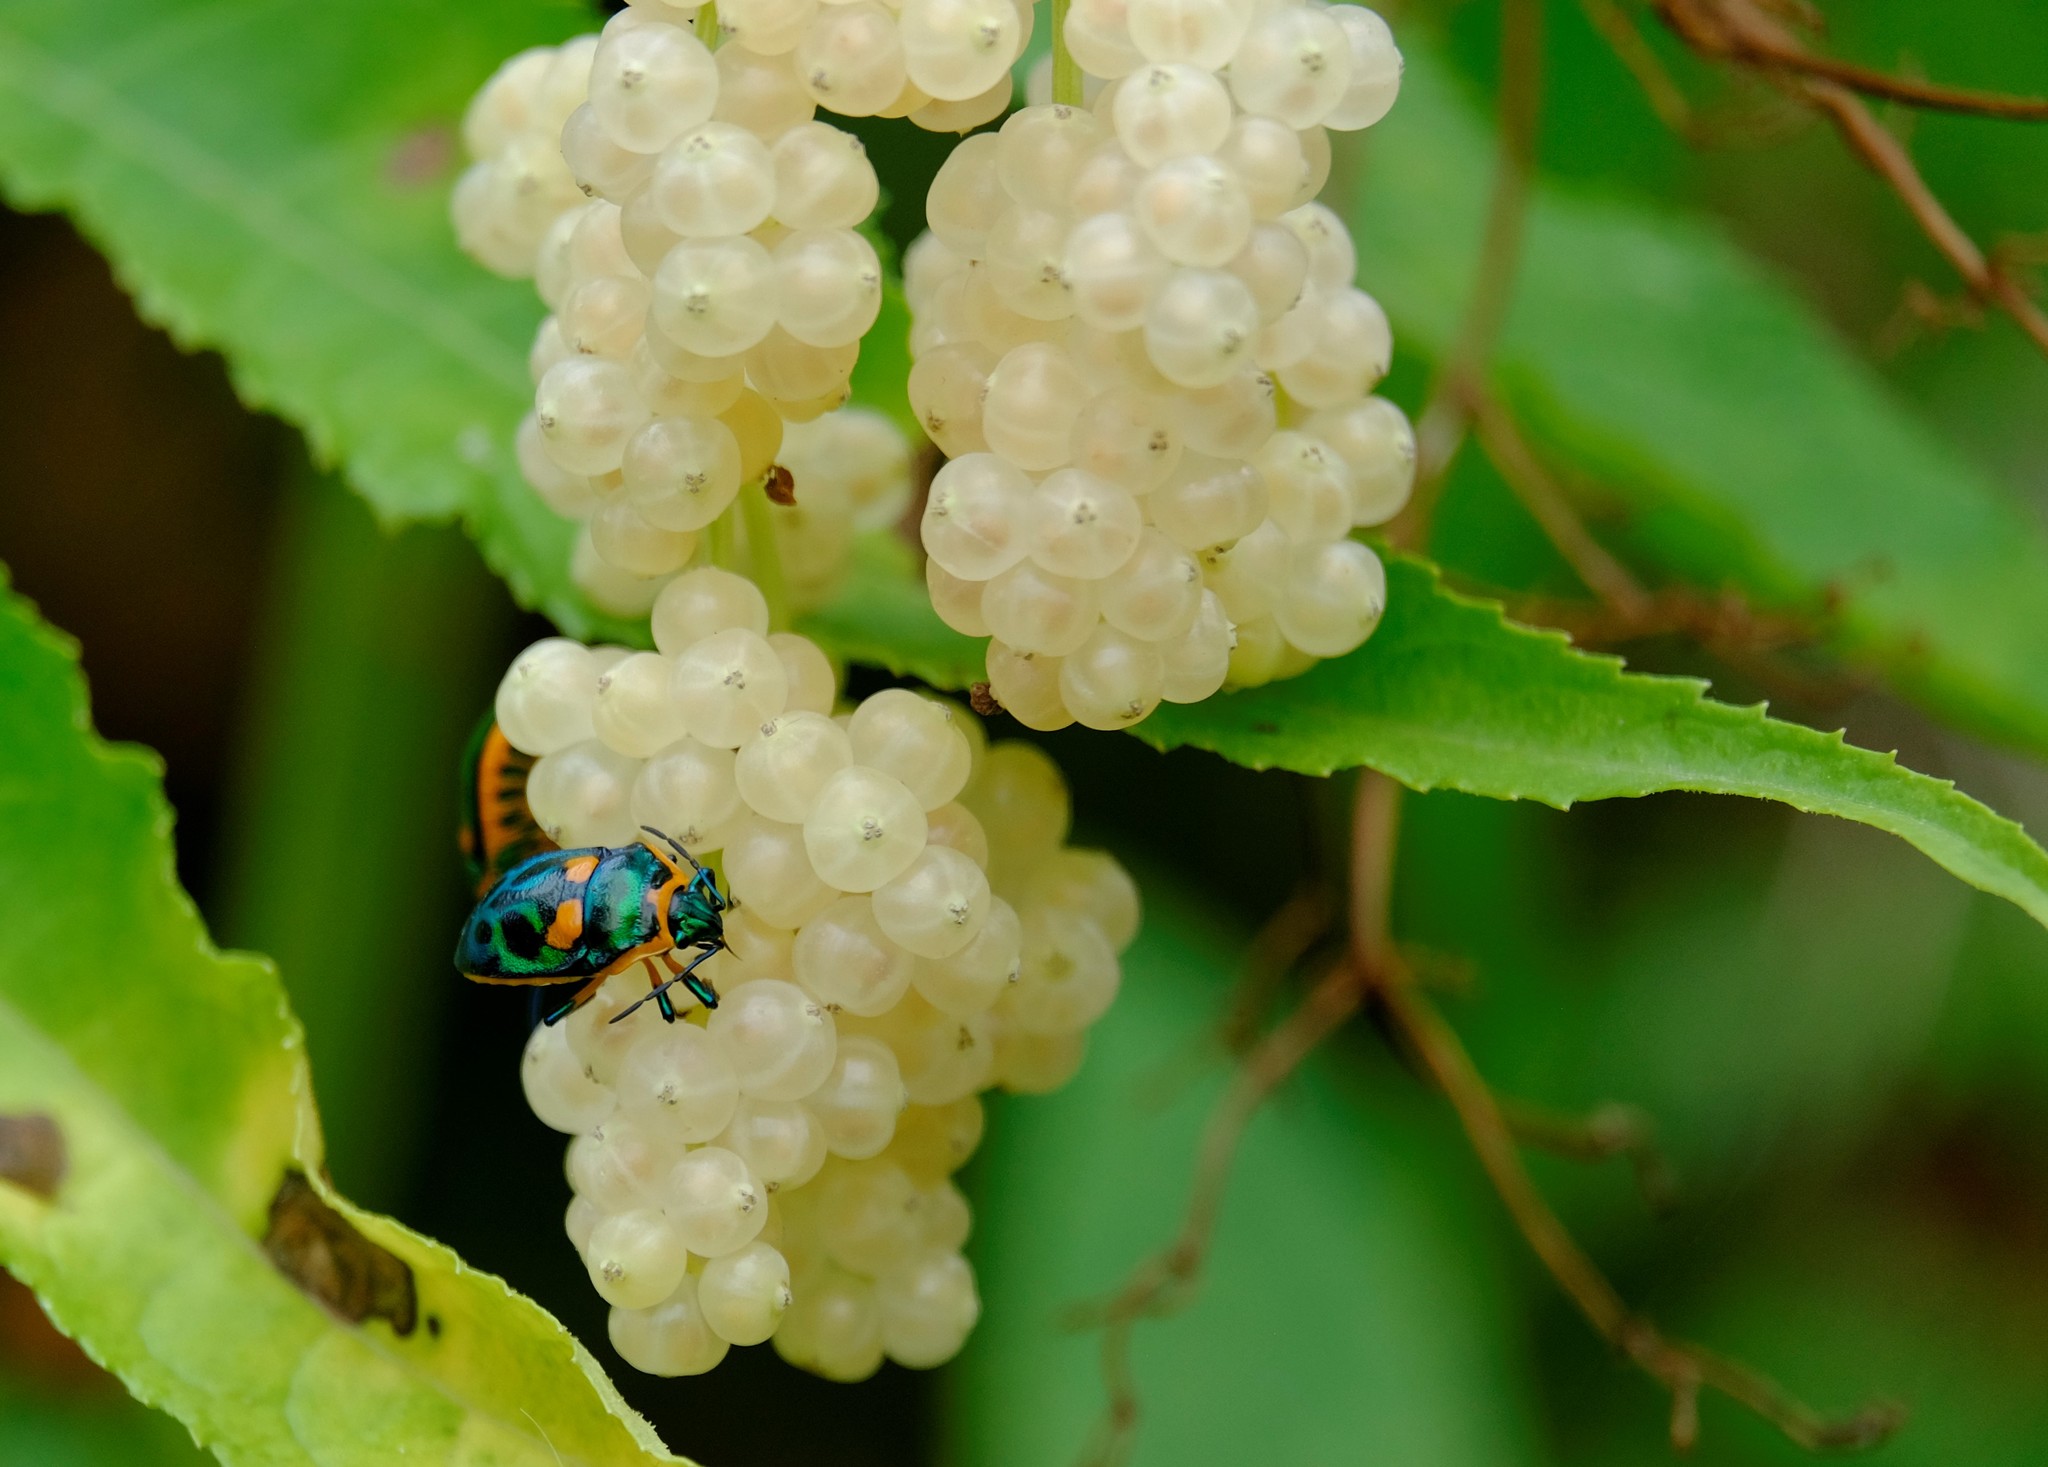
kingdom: Plantae
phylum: Tracheophyta
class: Magnoliopsida
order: Dipsacales
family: Viburnaceae
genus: Sambucus
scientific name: Sambucus gaudichaudiana
